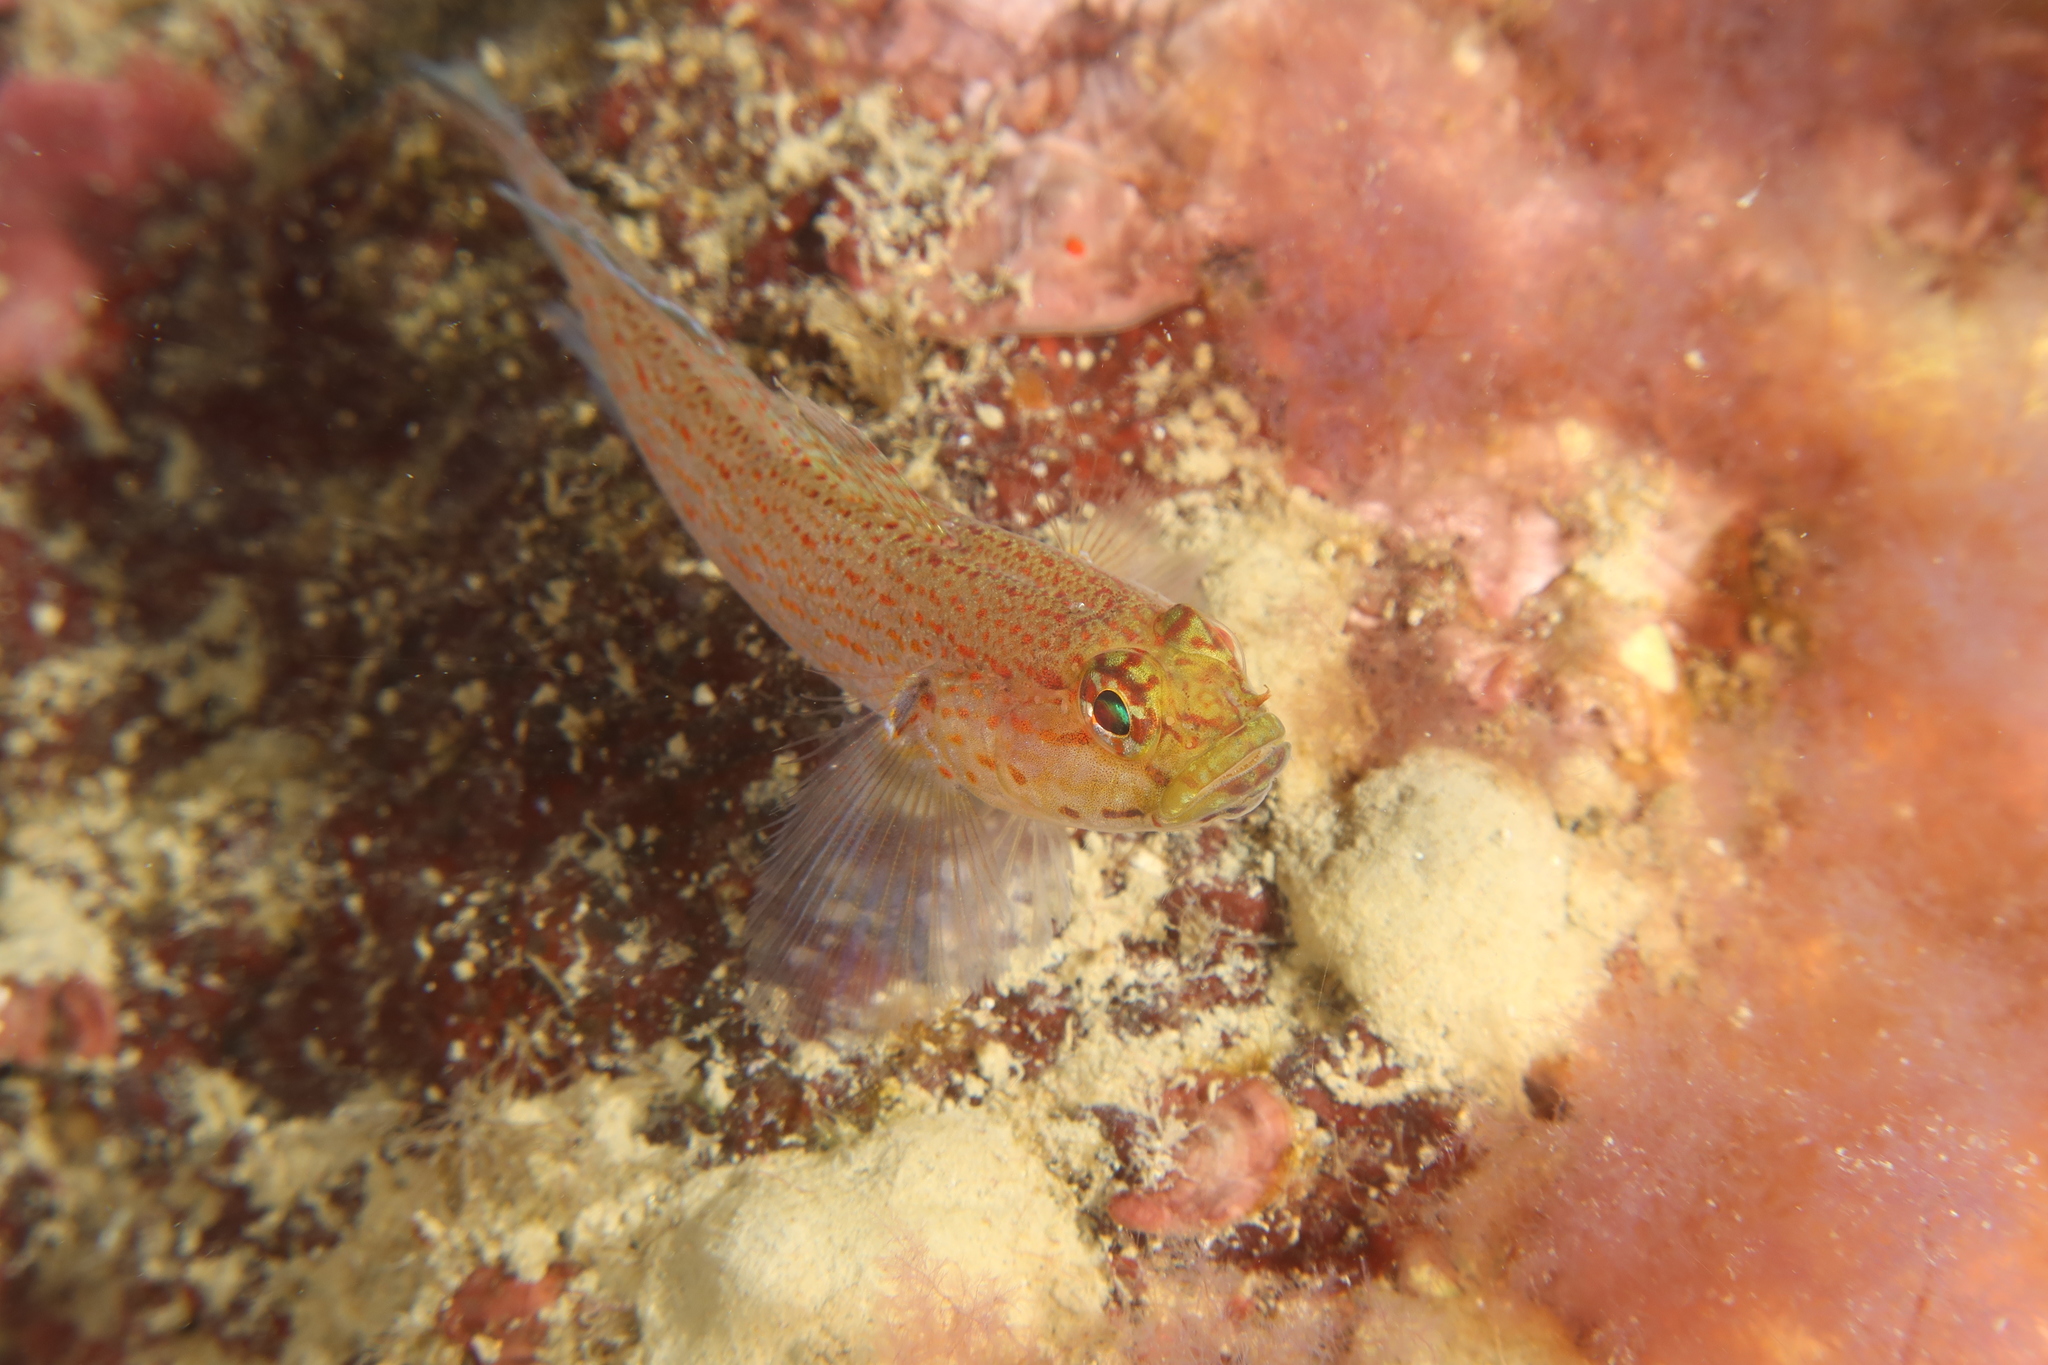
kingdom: Animalia
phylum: Chordata
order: Perciformes
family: Gobiidae
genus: Gobius
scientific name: Gobius xanthocephalus
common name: Golden goby
